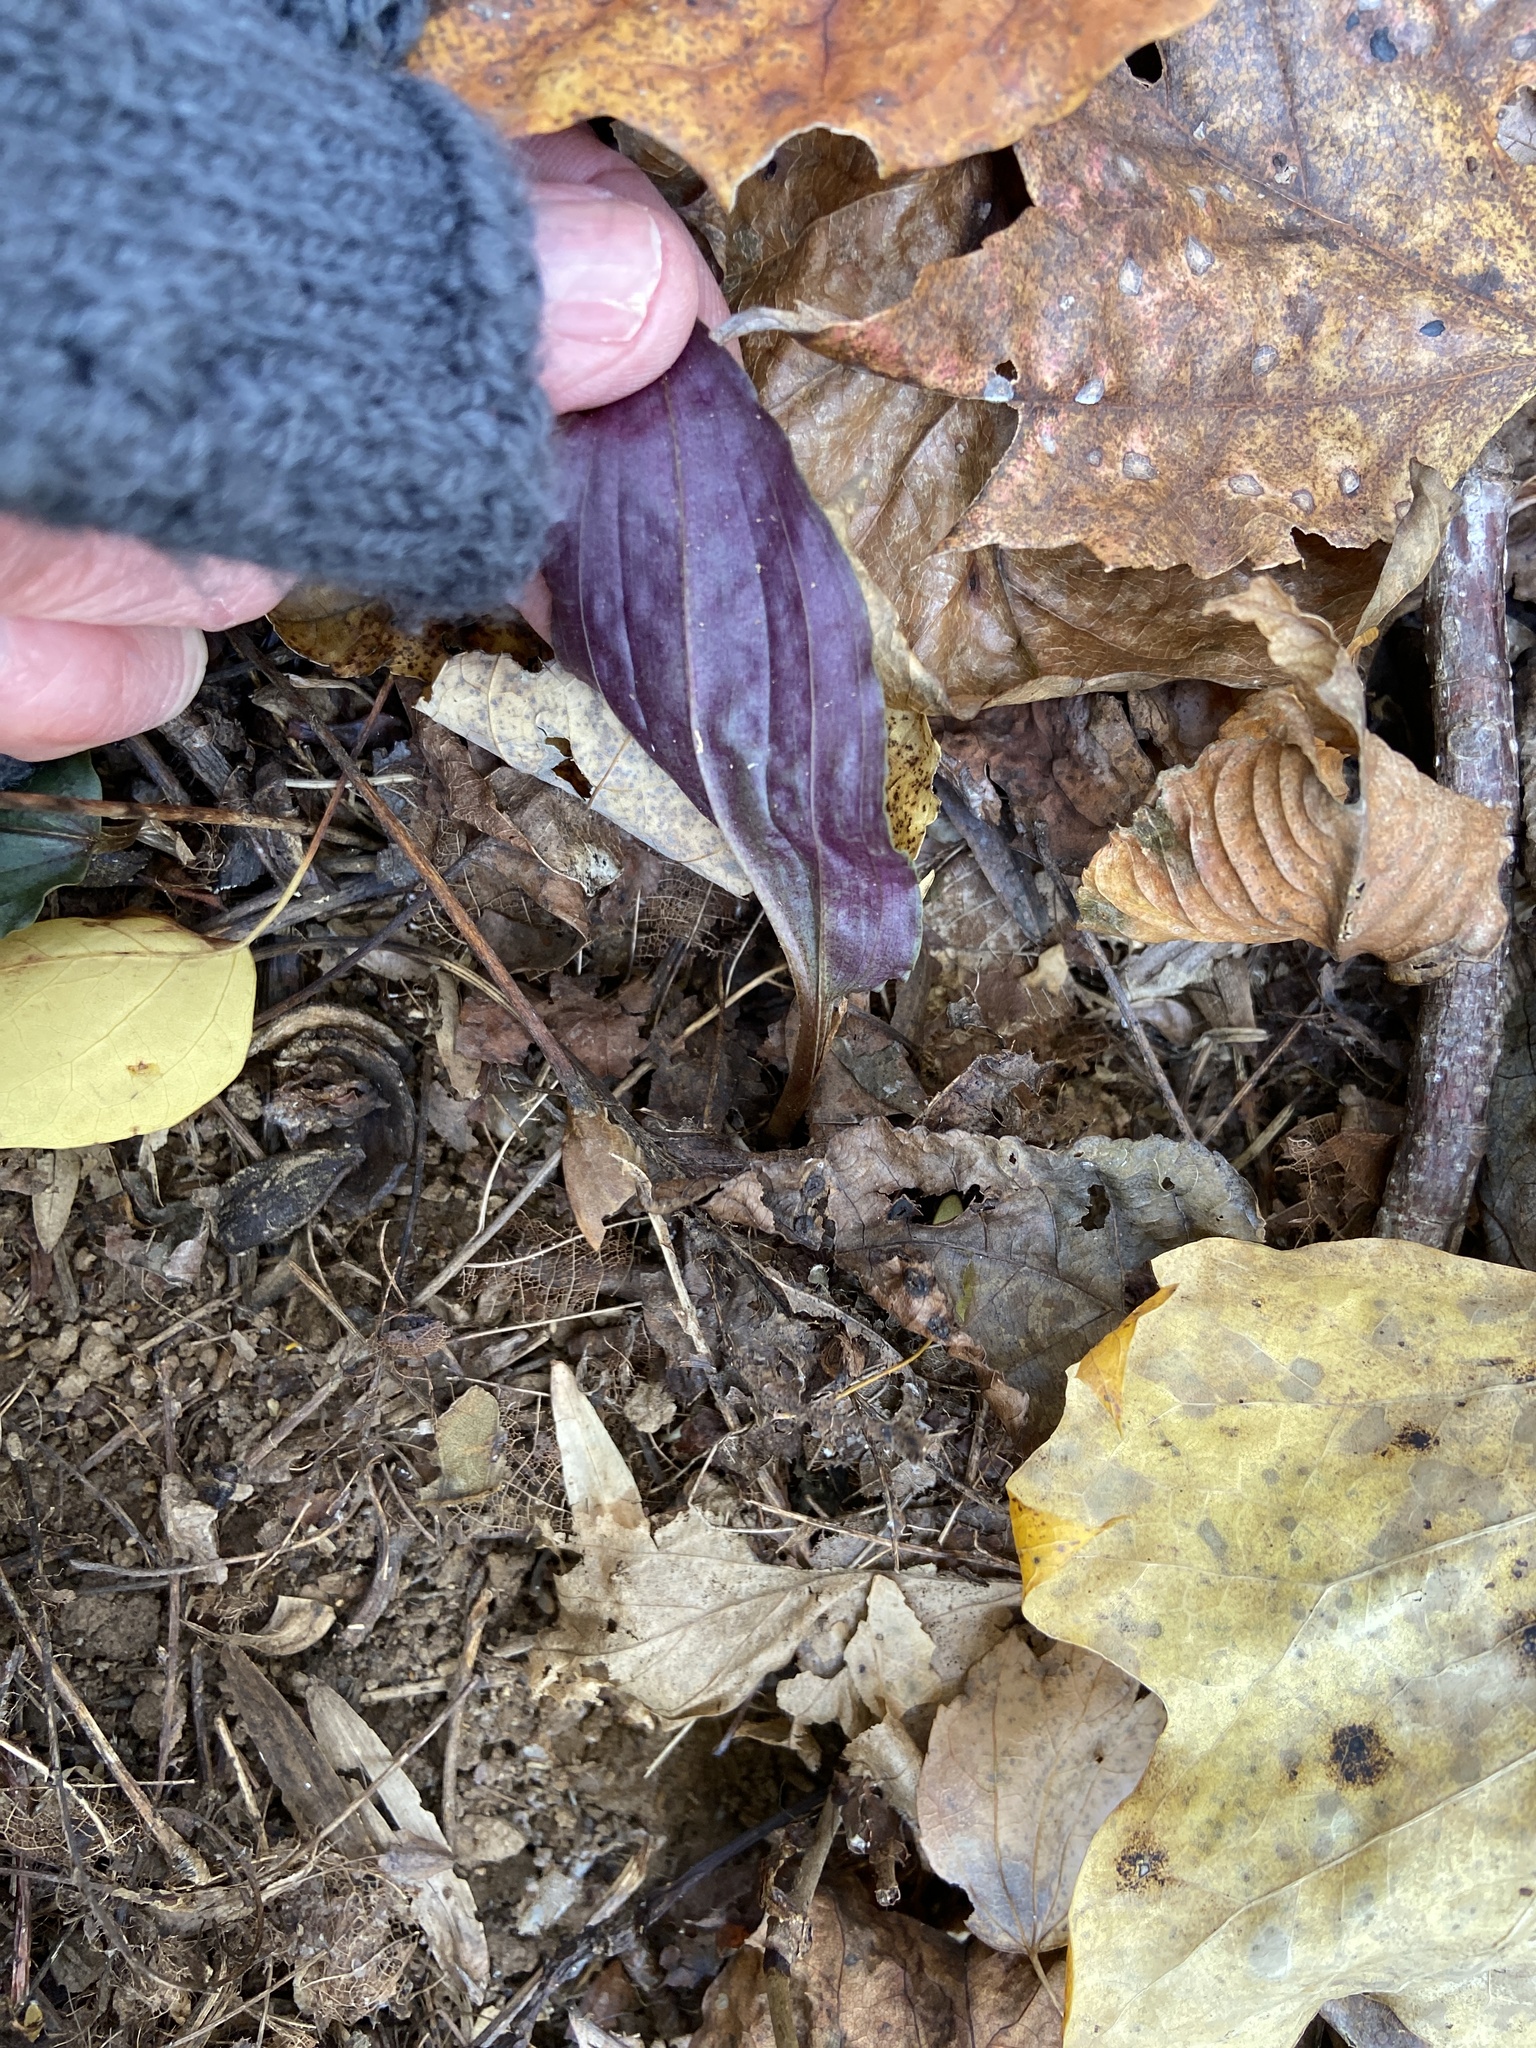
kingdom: Plantae
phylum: Tracheophyta
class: Liliopsida
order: Asparagales
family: Orchidaceae
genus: Tipularia
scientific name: Tipularia discolor
